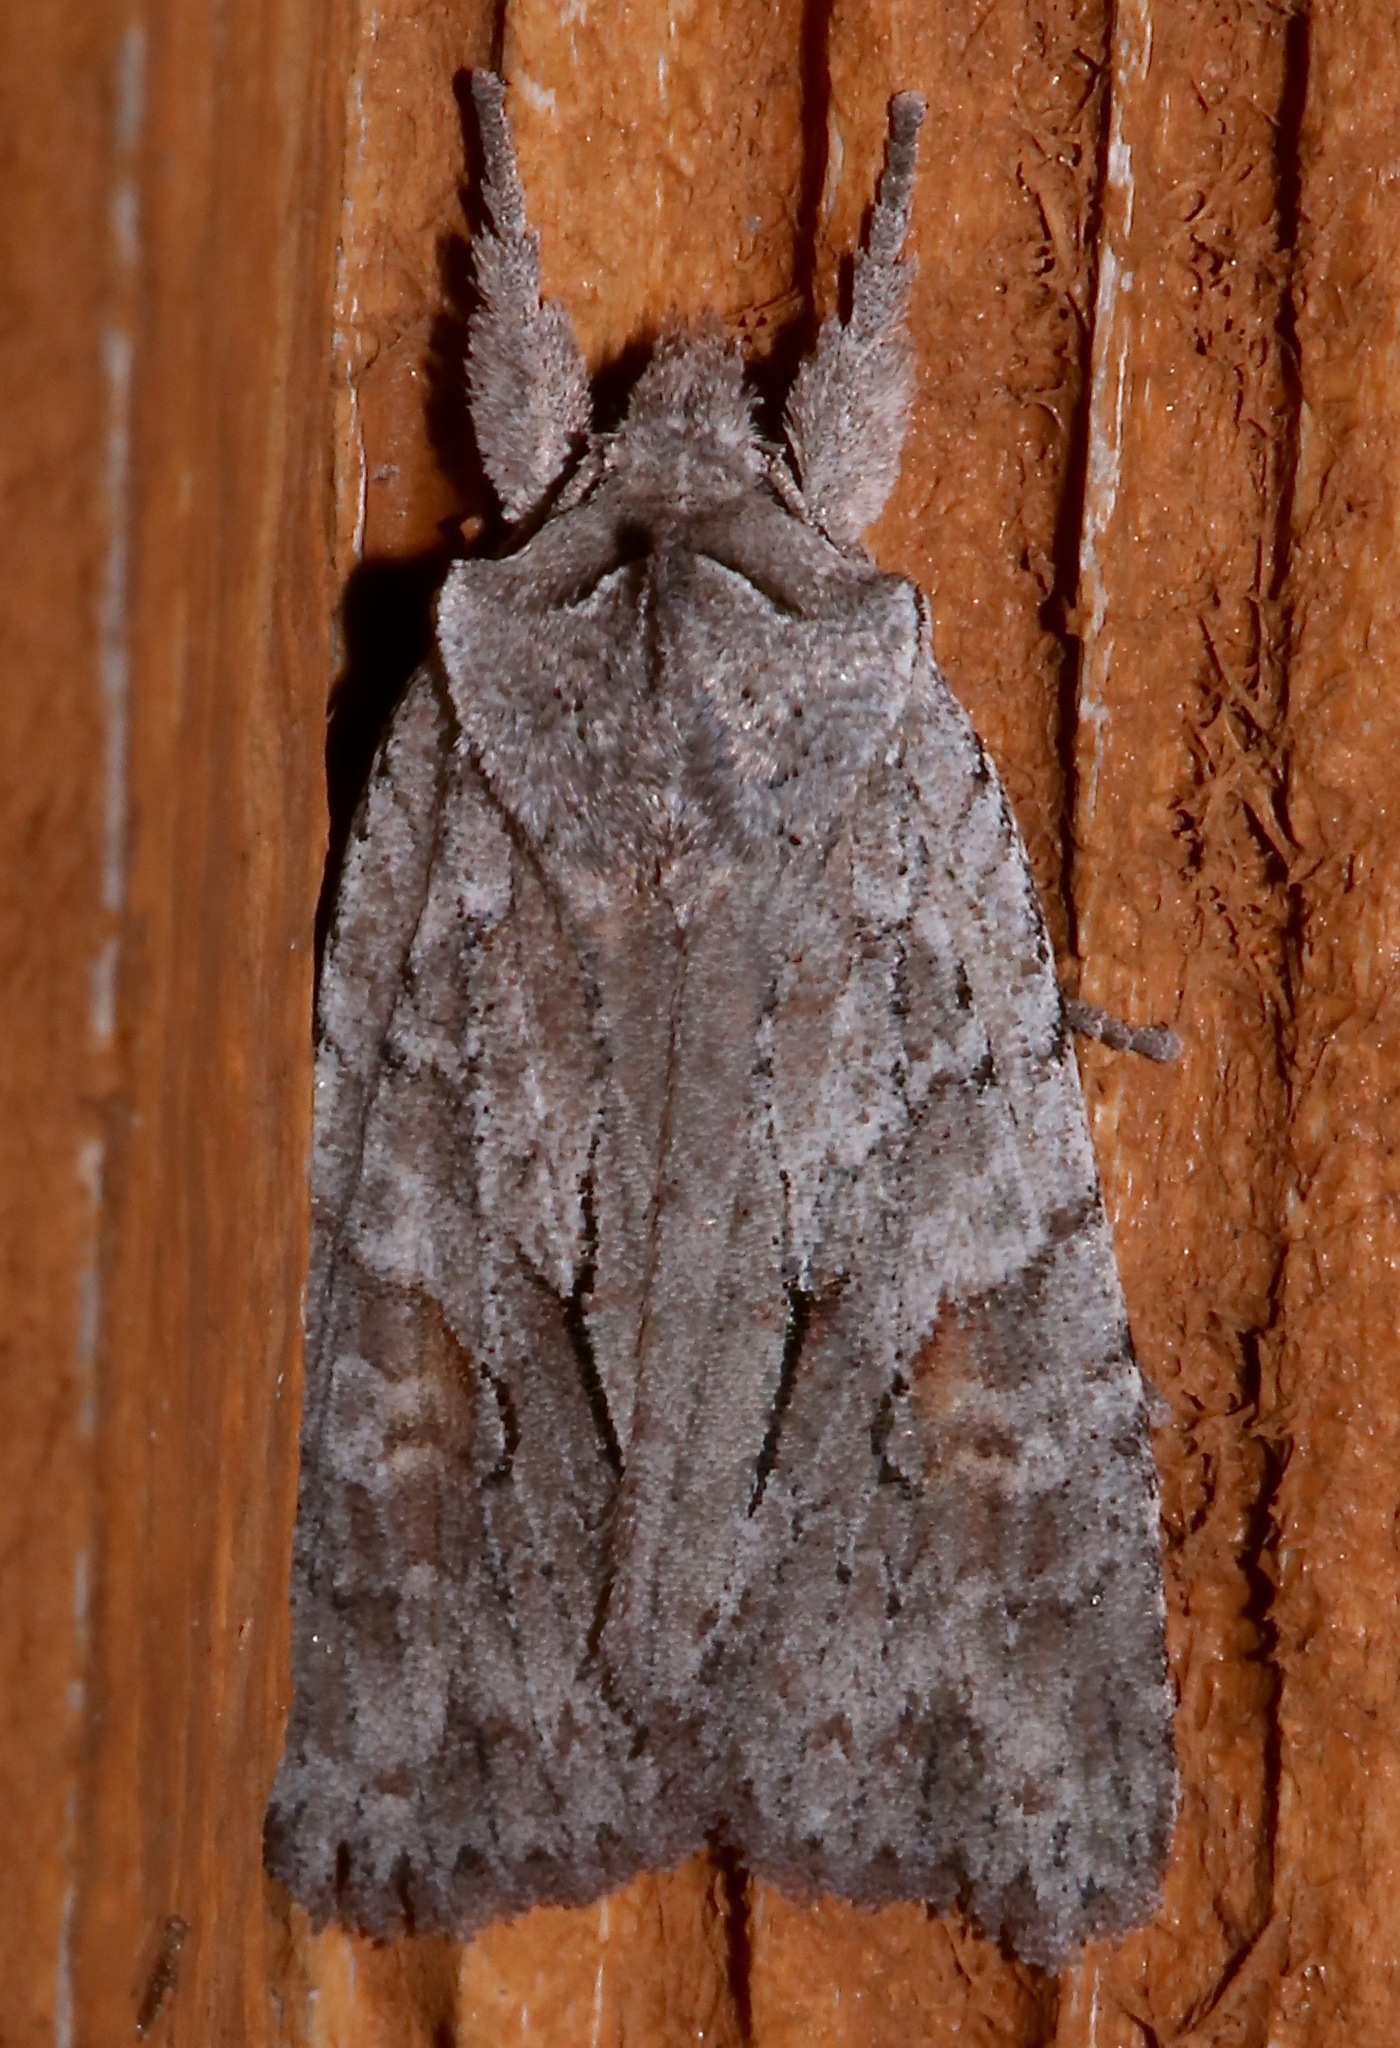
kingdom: Animalia
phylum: Arthropoda
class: Insecta
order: Lepidoptera
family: Noctuidae
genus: Lithophane
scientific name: Lithophane abita
